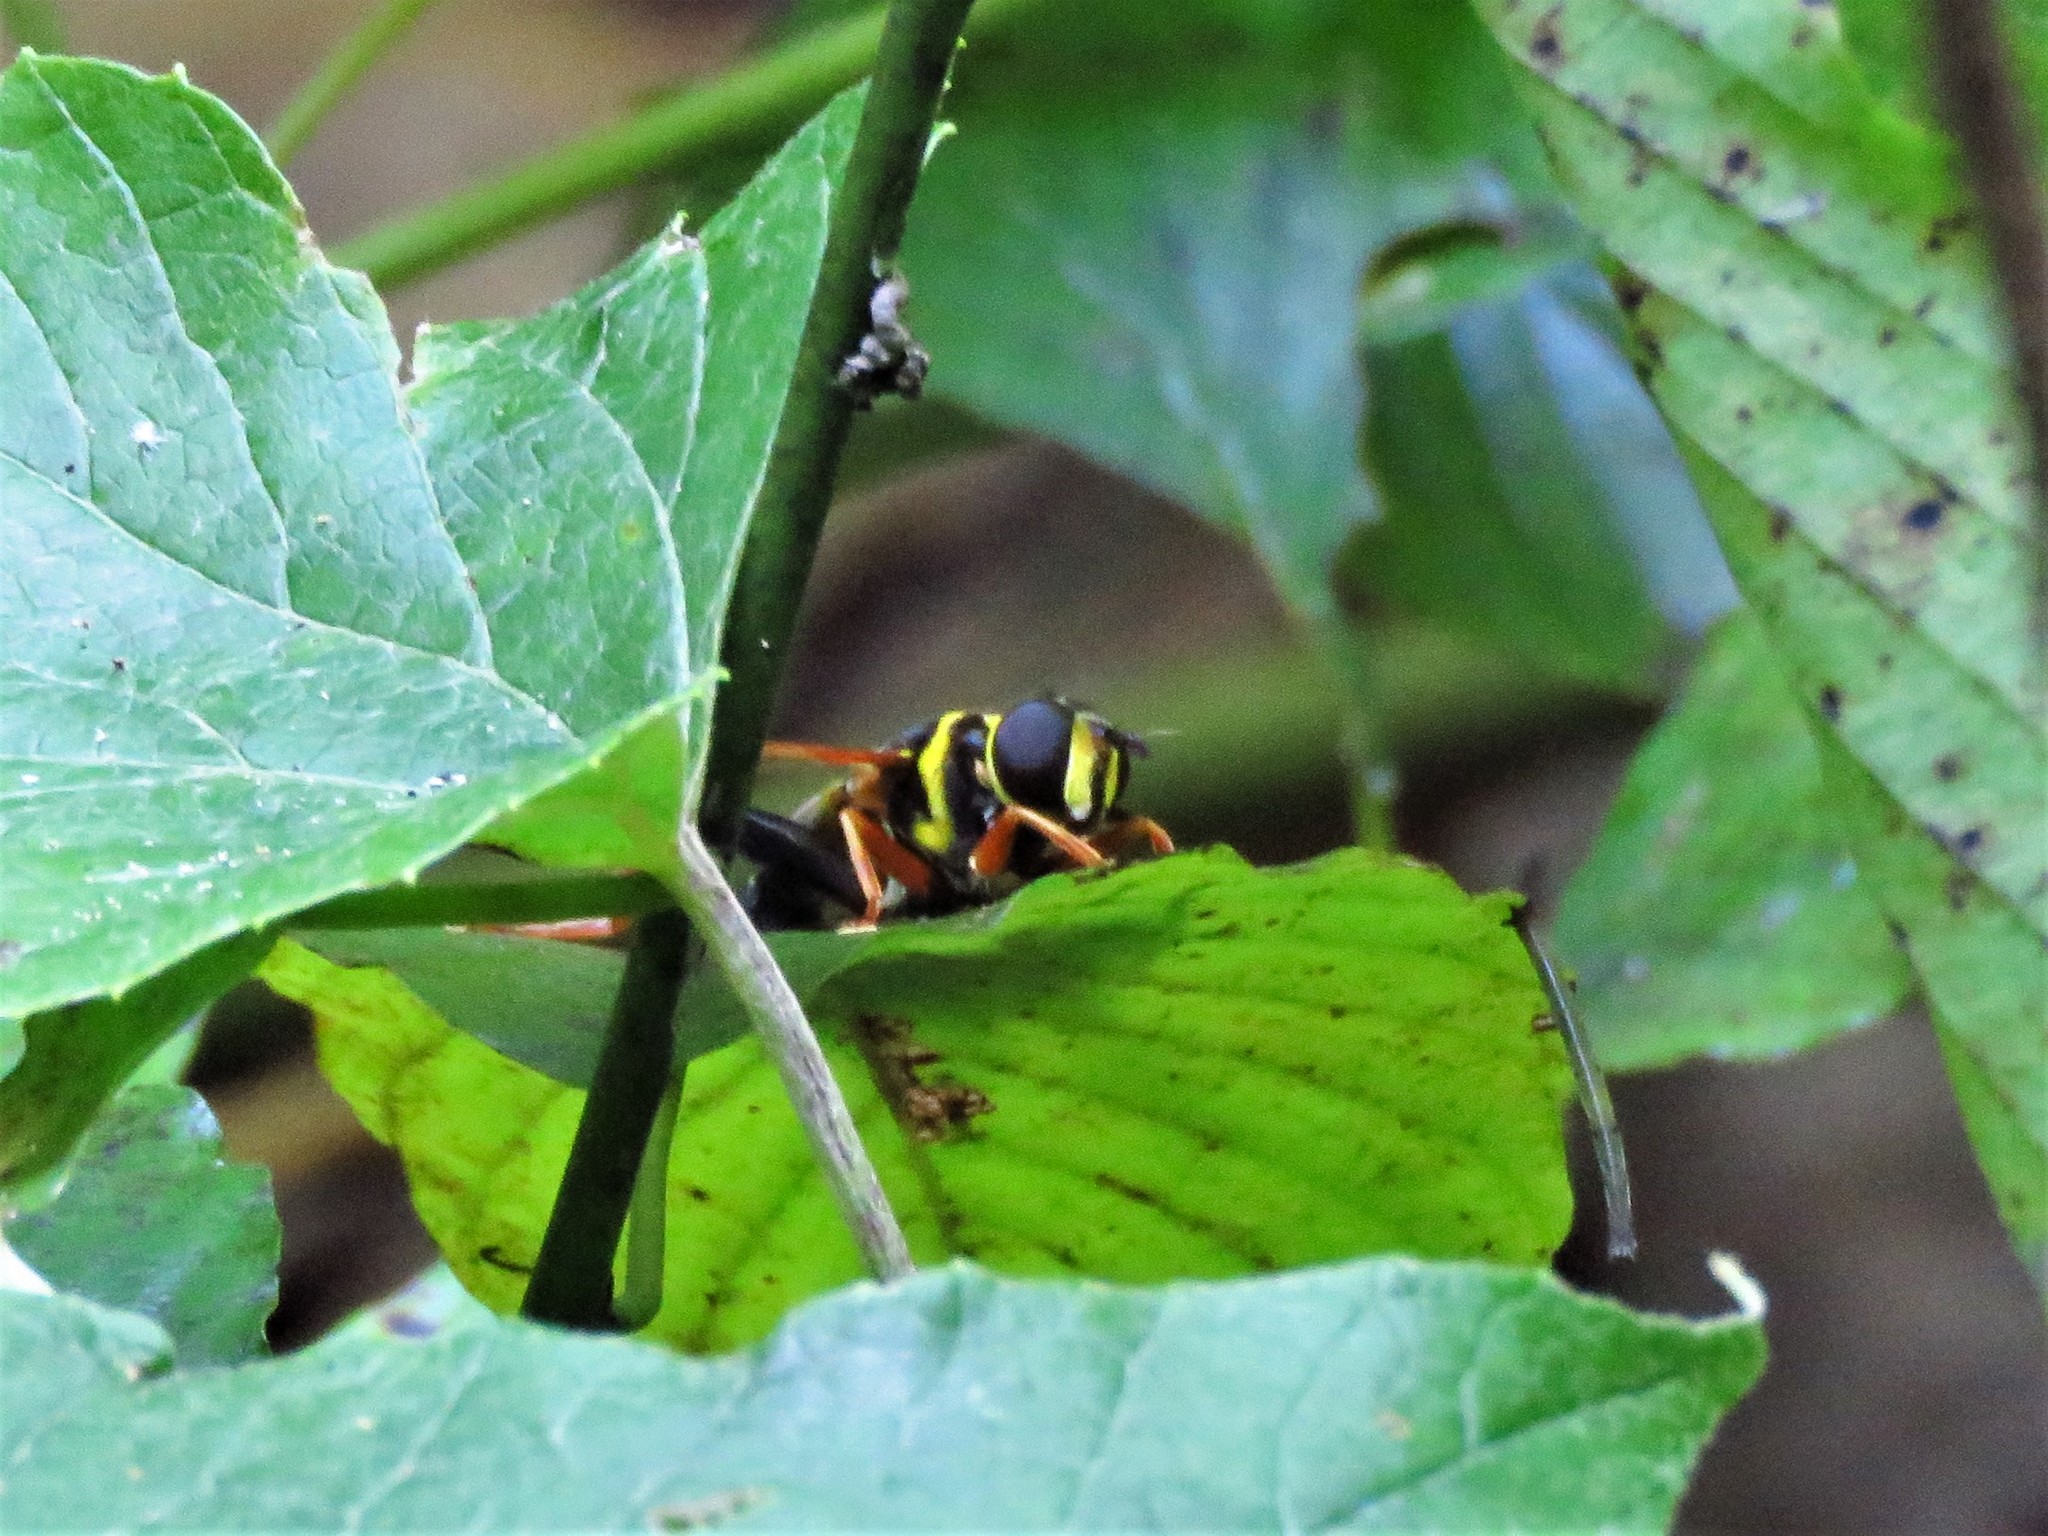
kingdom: Animalia
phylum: Arthropoda
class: Insecta
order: Diptera
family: Syrphidae
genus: Meromacrus
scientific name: Meromacrus acutus
